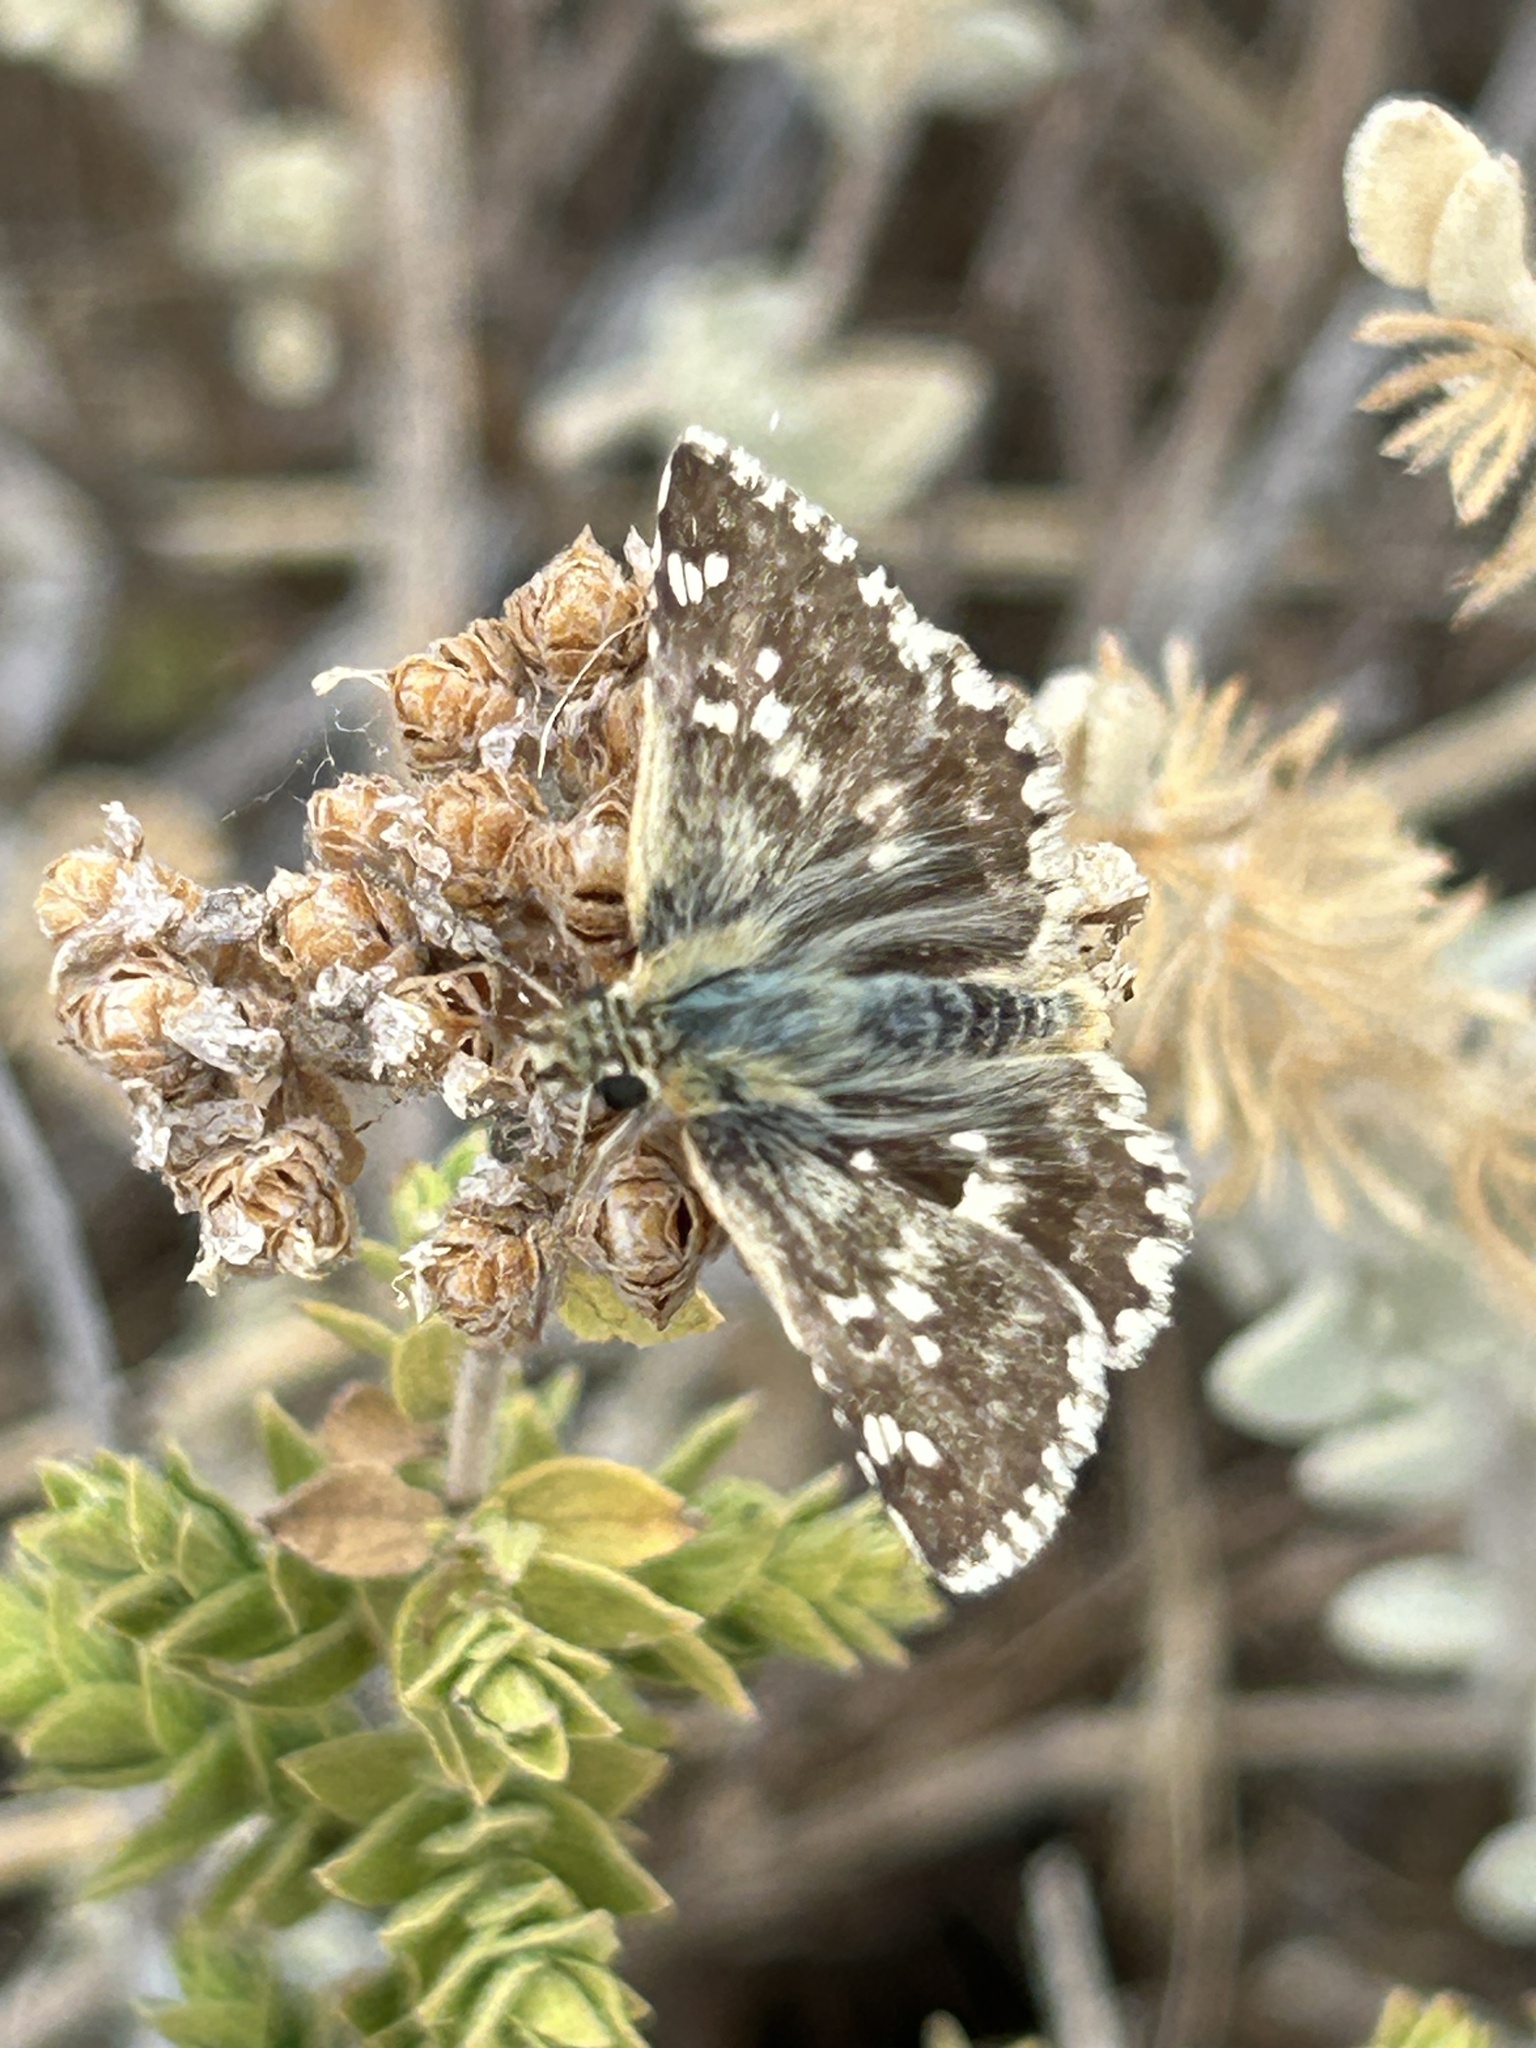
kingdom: Animalia
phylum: Arthropoda
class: Insecta
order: Lepidoptera
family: Hesperiidae
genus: Syrichtus
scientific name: Syrichtus proto
